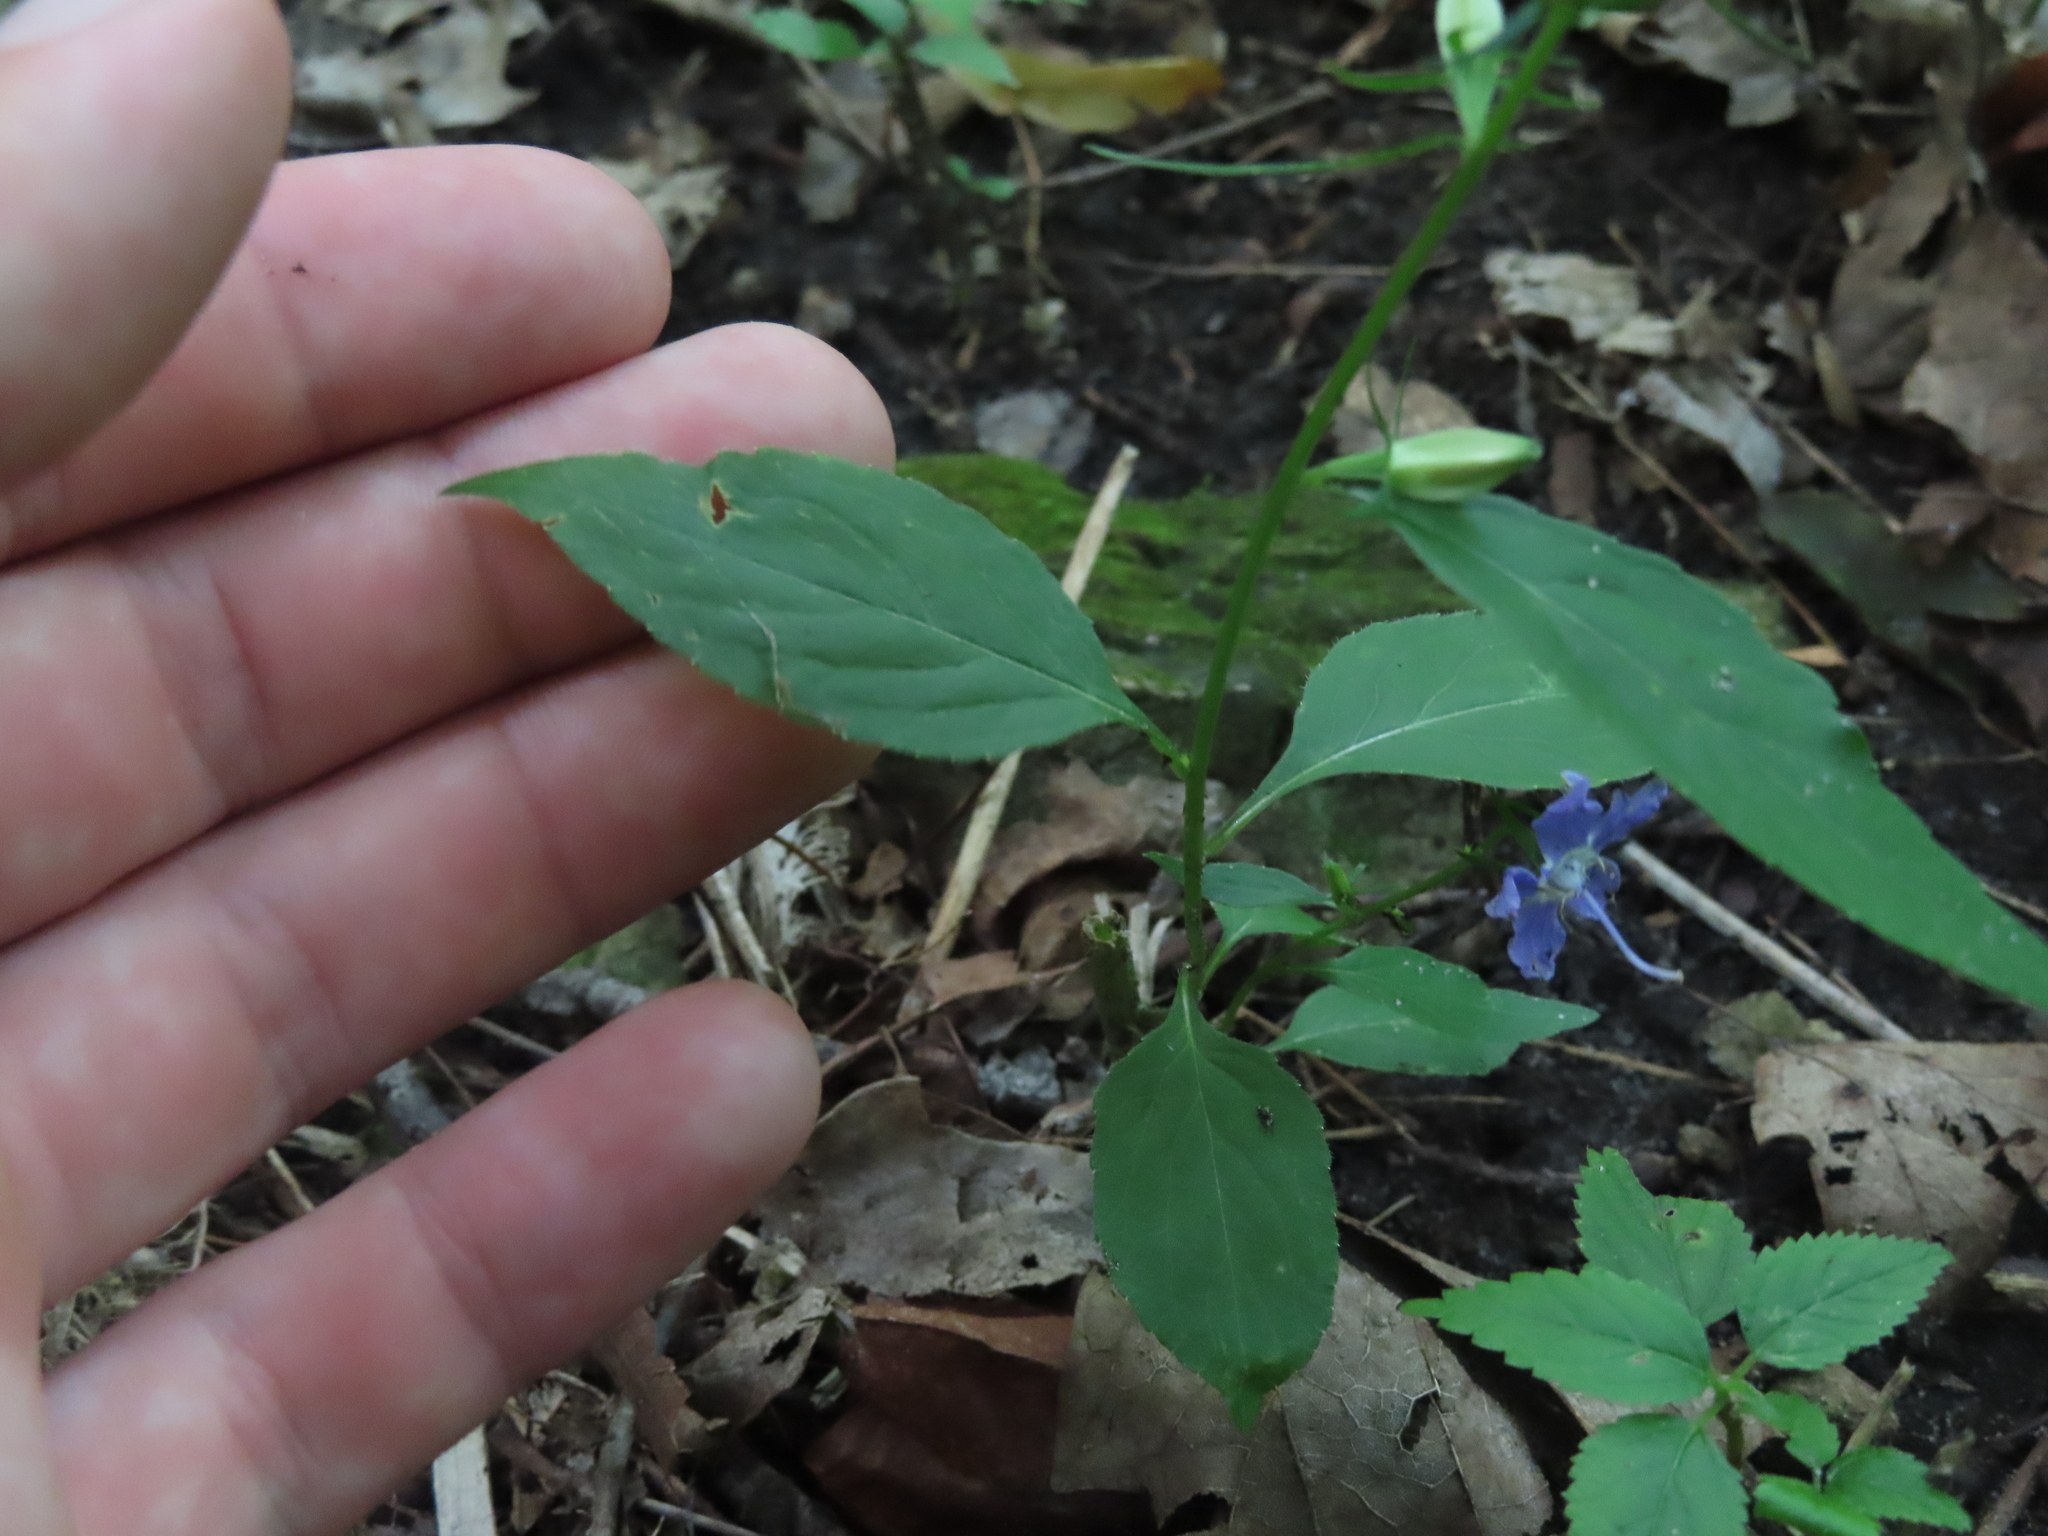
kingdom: Plantae
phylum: Tracheophyta
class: Magnoliopsida
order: Asterales
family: Campanulaceae
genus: Campanulastrum
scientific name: Campanulastrum americanum
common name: American bellflower
